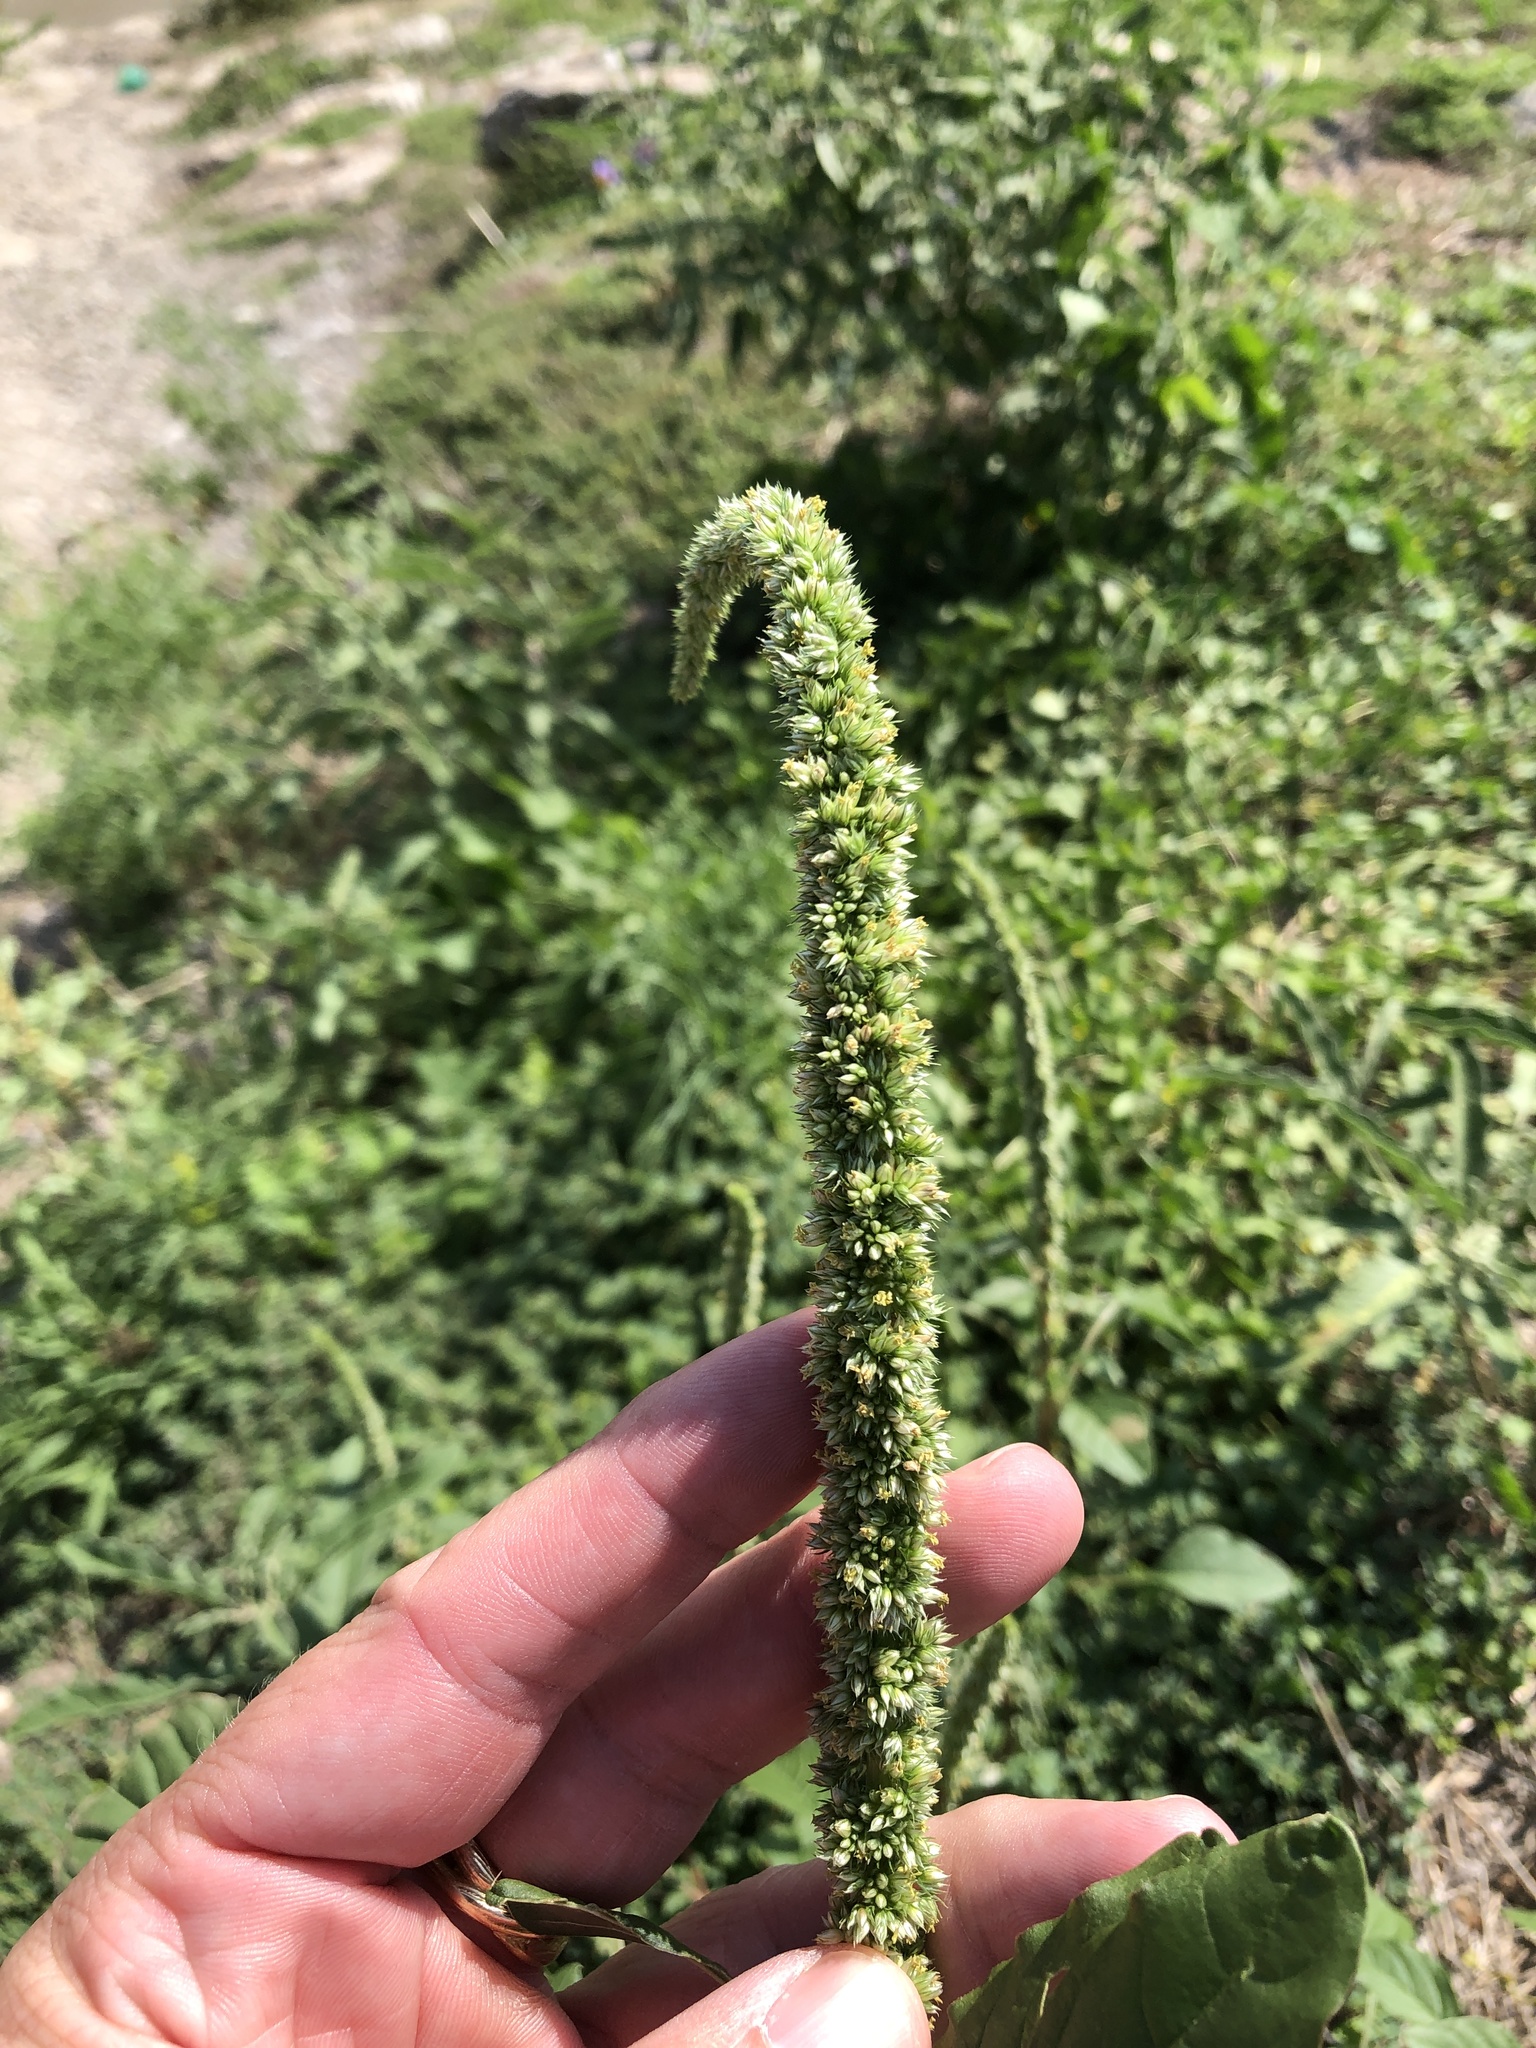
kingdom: Plantae
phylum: Tracheophyta
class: Magnoliopsida
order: Caryophyllales
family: Amaranthaceae
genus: Amaranthus
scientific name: Amaranthus palmeri
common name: Dioecious amaranth
